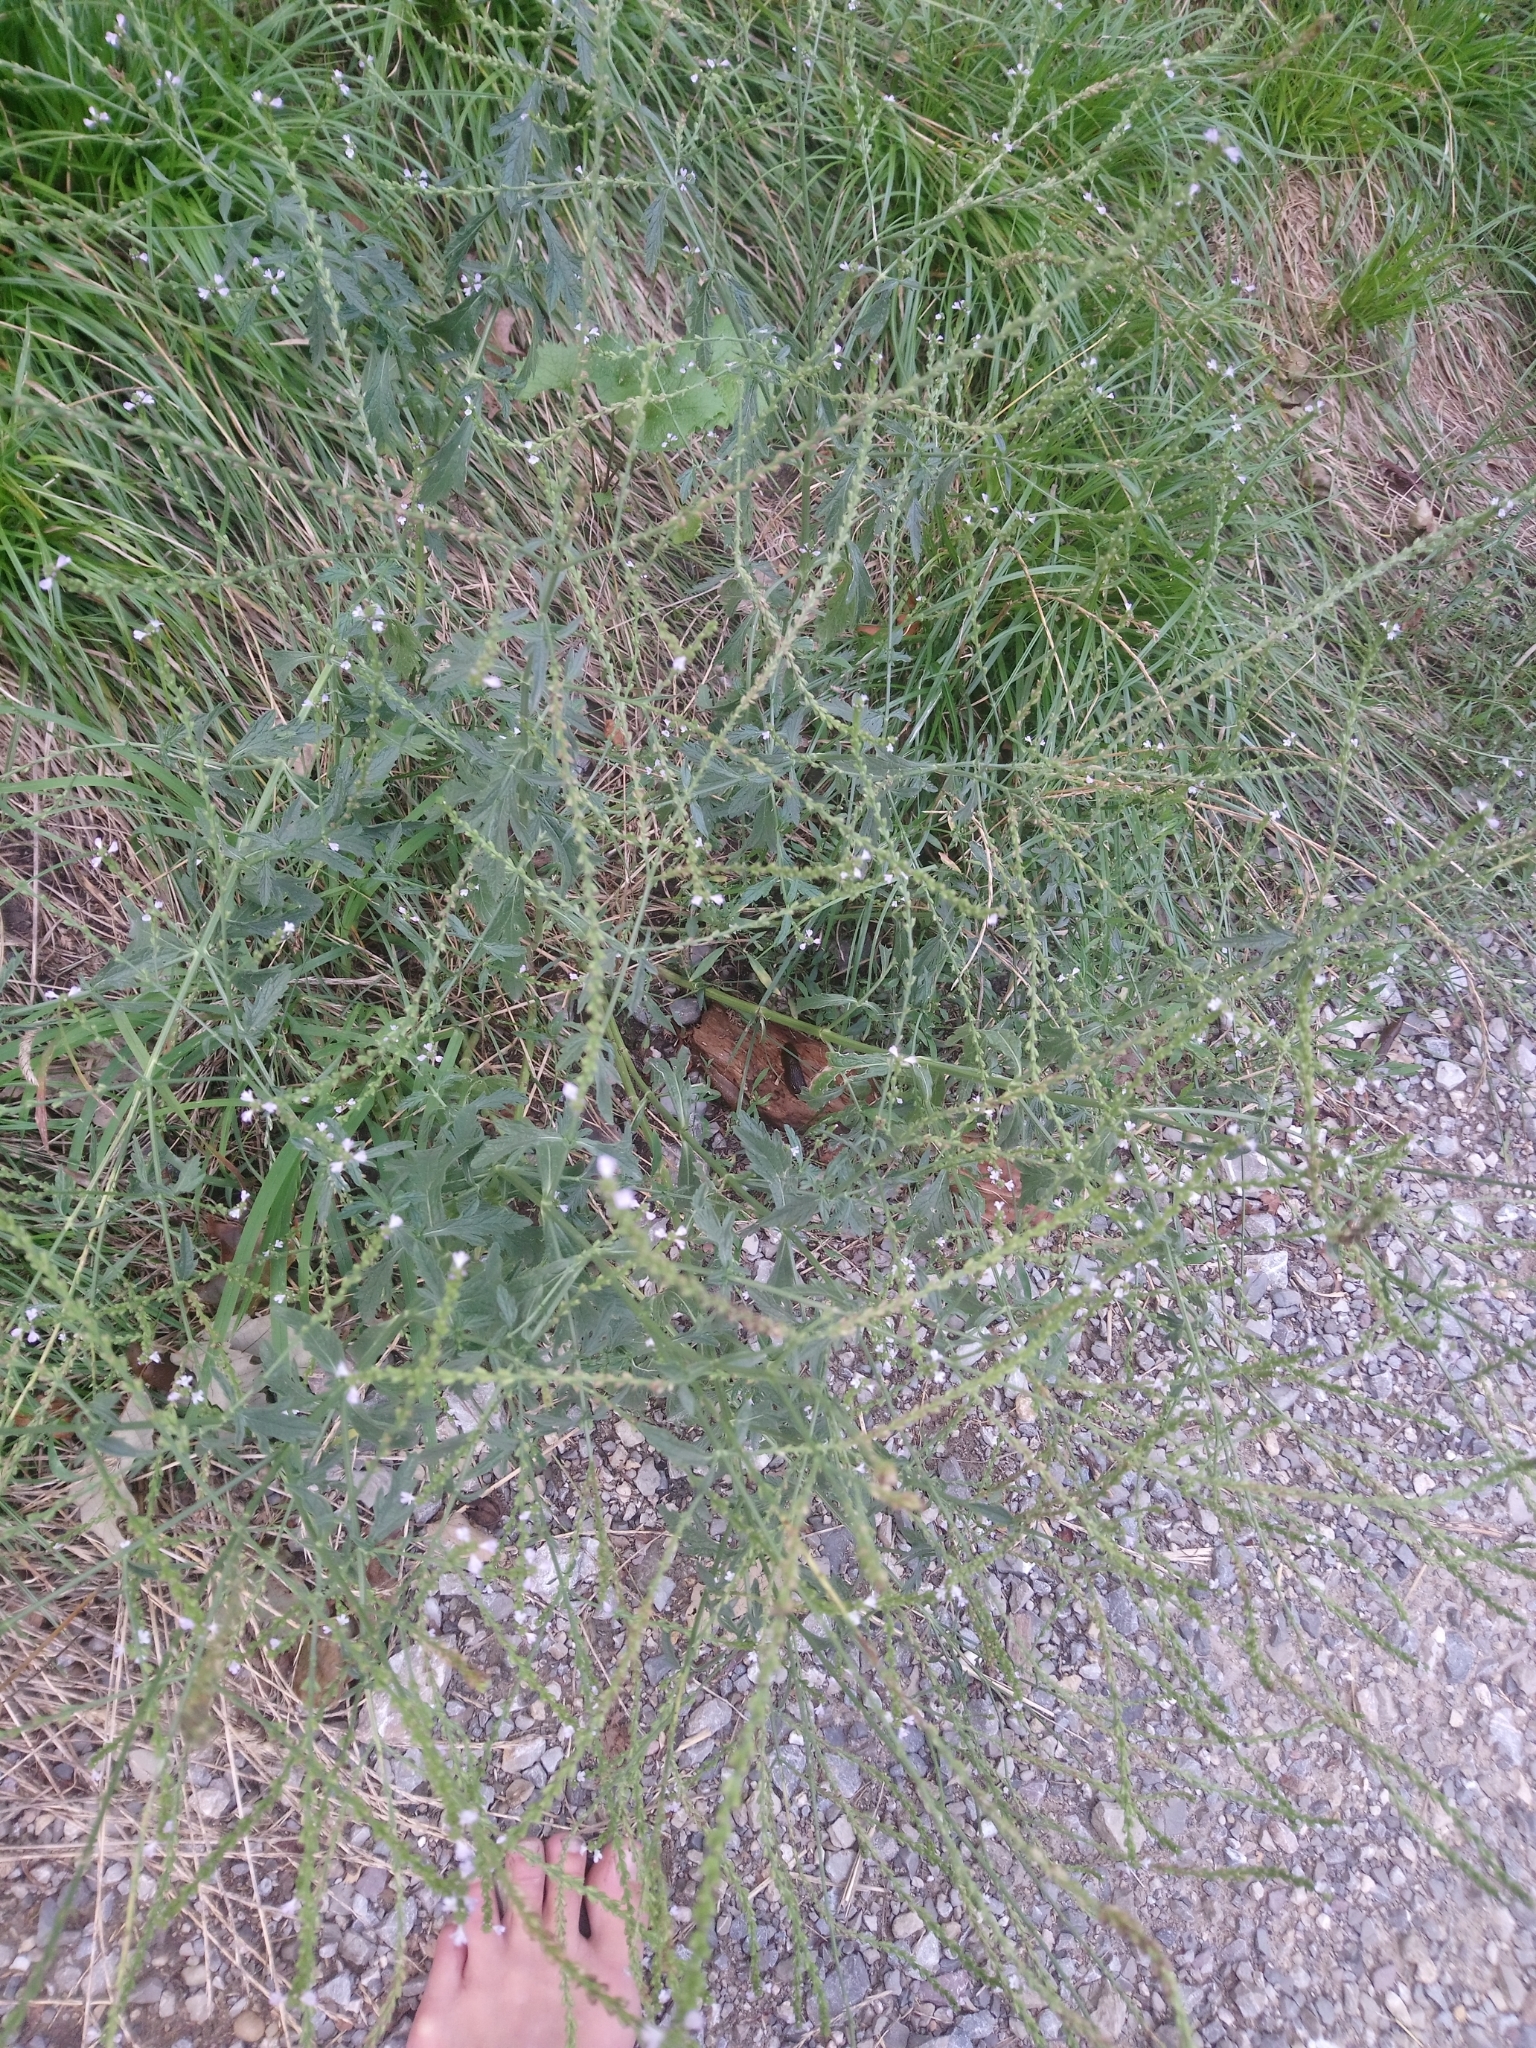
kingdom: Plantae
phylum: Tracheophyta
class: Magnoliopsida
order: Lamiales
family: Verbenaceae
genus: Verbena
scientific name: Verbena officinalis
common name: Vervain
